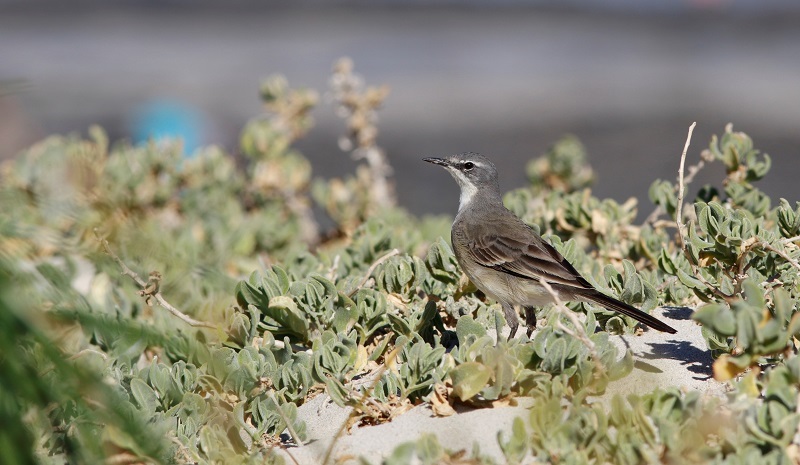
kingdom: Animalia
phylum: Chordata
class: Aves
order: Passeriformes
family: Motacillidae
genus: Motacilla
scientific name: Motacilla capensis
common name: Cape wagtail
